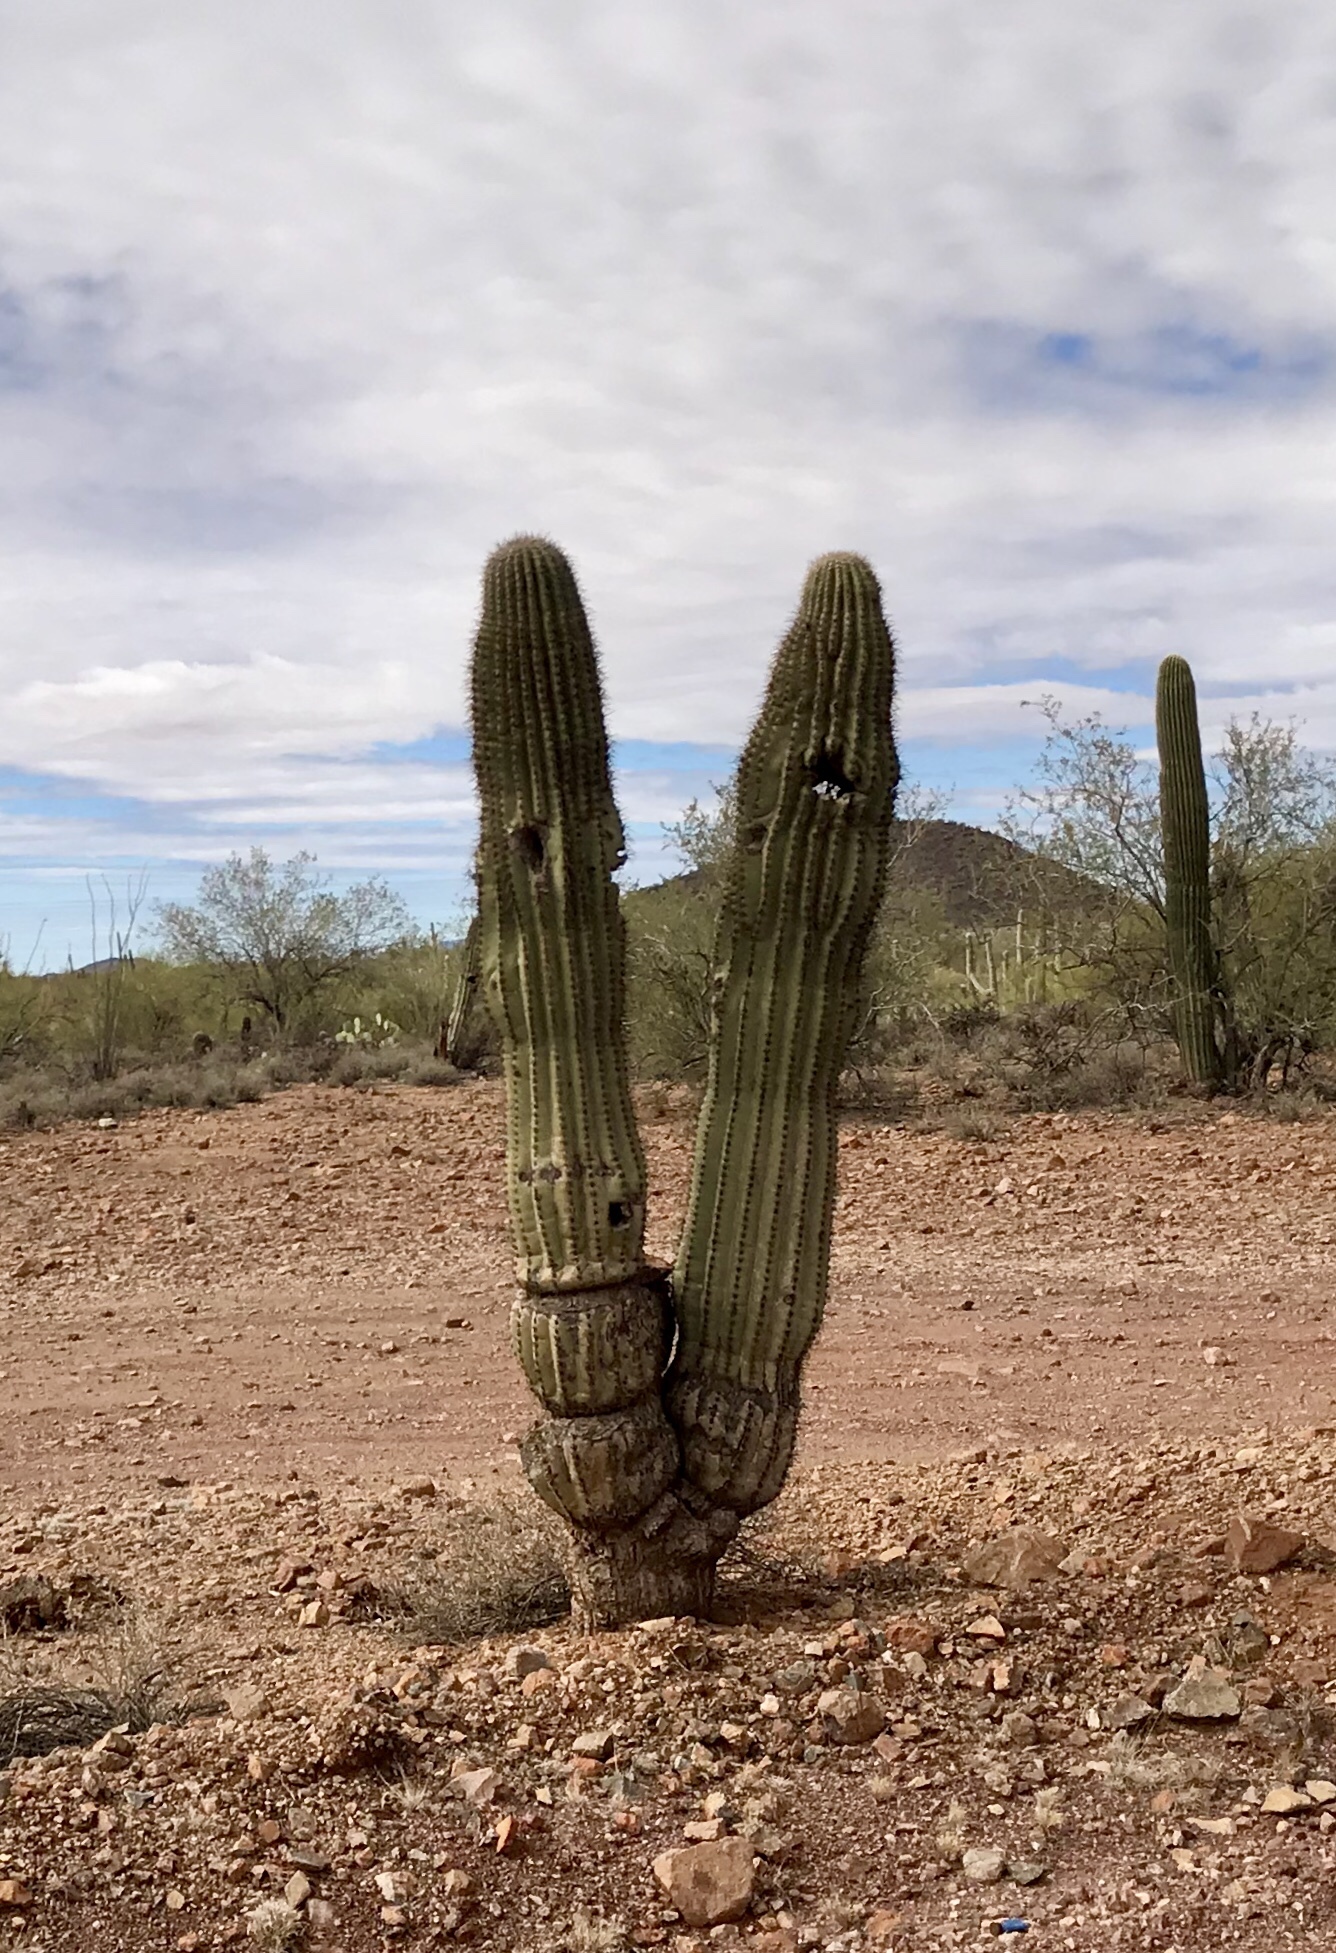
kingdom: Plantae
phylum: Tracheophyta
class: Magnoliopsida
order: Caryophyllales
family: Cactaceae
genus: Carnegiea
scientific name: Carnegiea gigantea
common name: Saguaro
